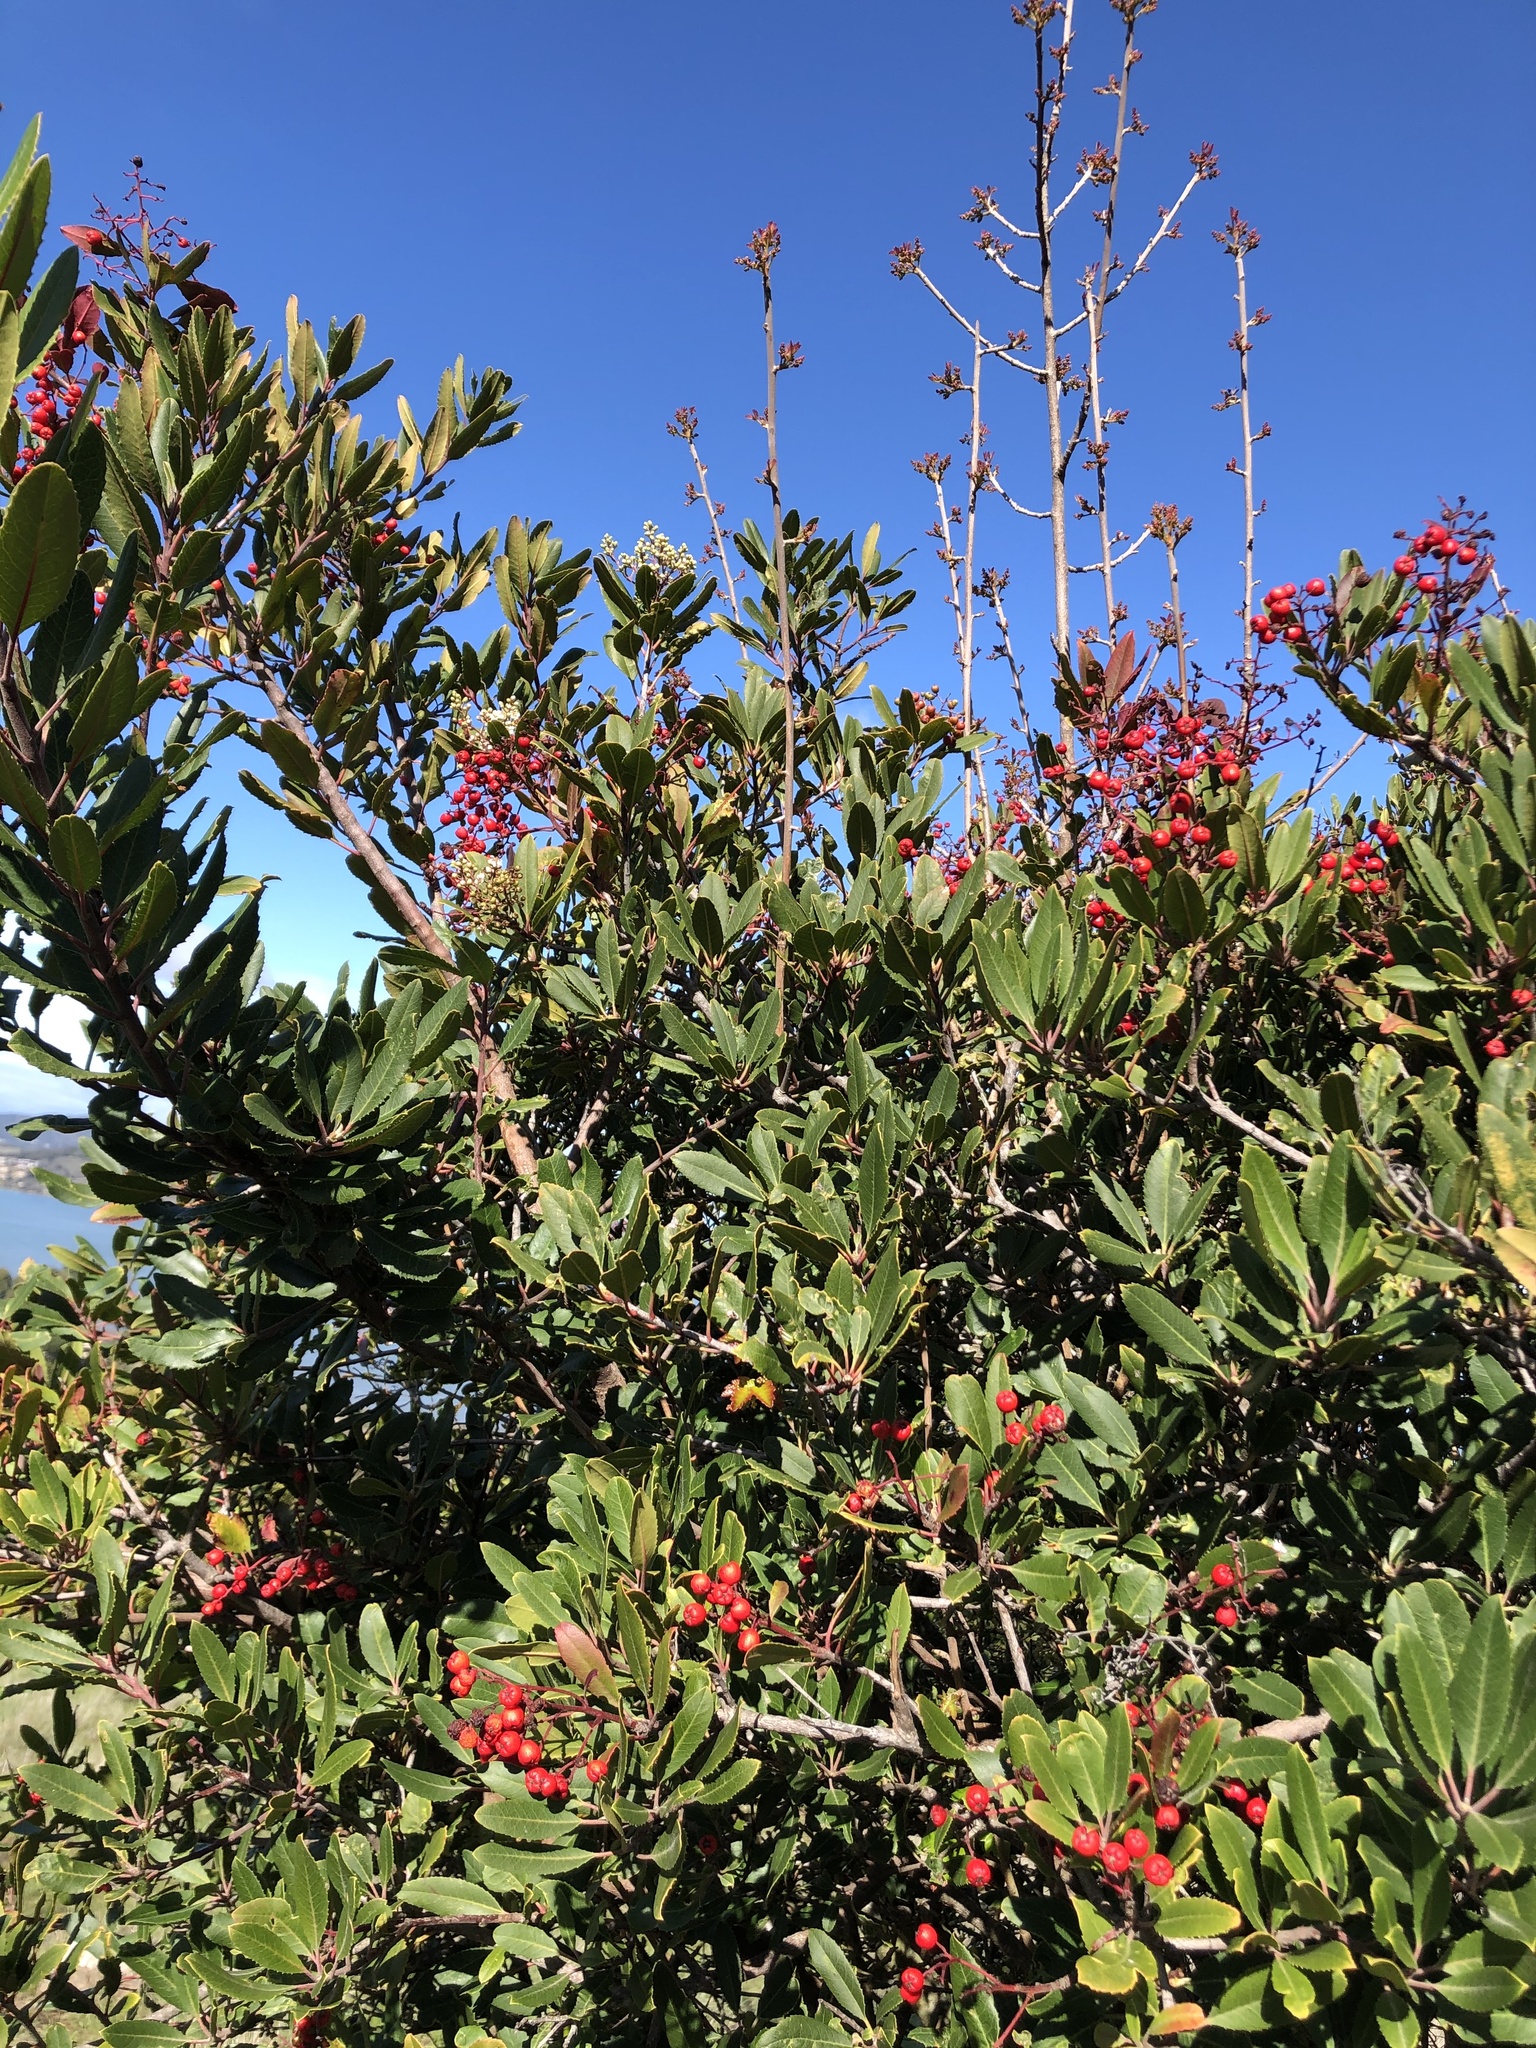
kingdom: Plantae
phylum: Tracheophyta
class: Magnoliopsida
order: Rosales
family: Rosaceae
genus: Heteromeles
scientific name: Heteromeles arbutifolia
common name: California-holly
